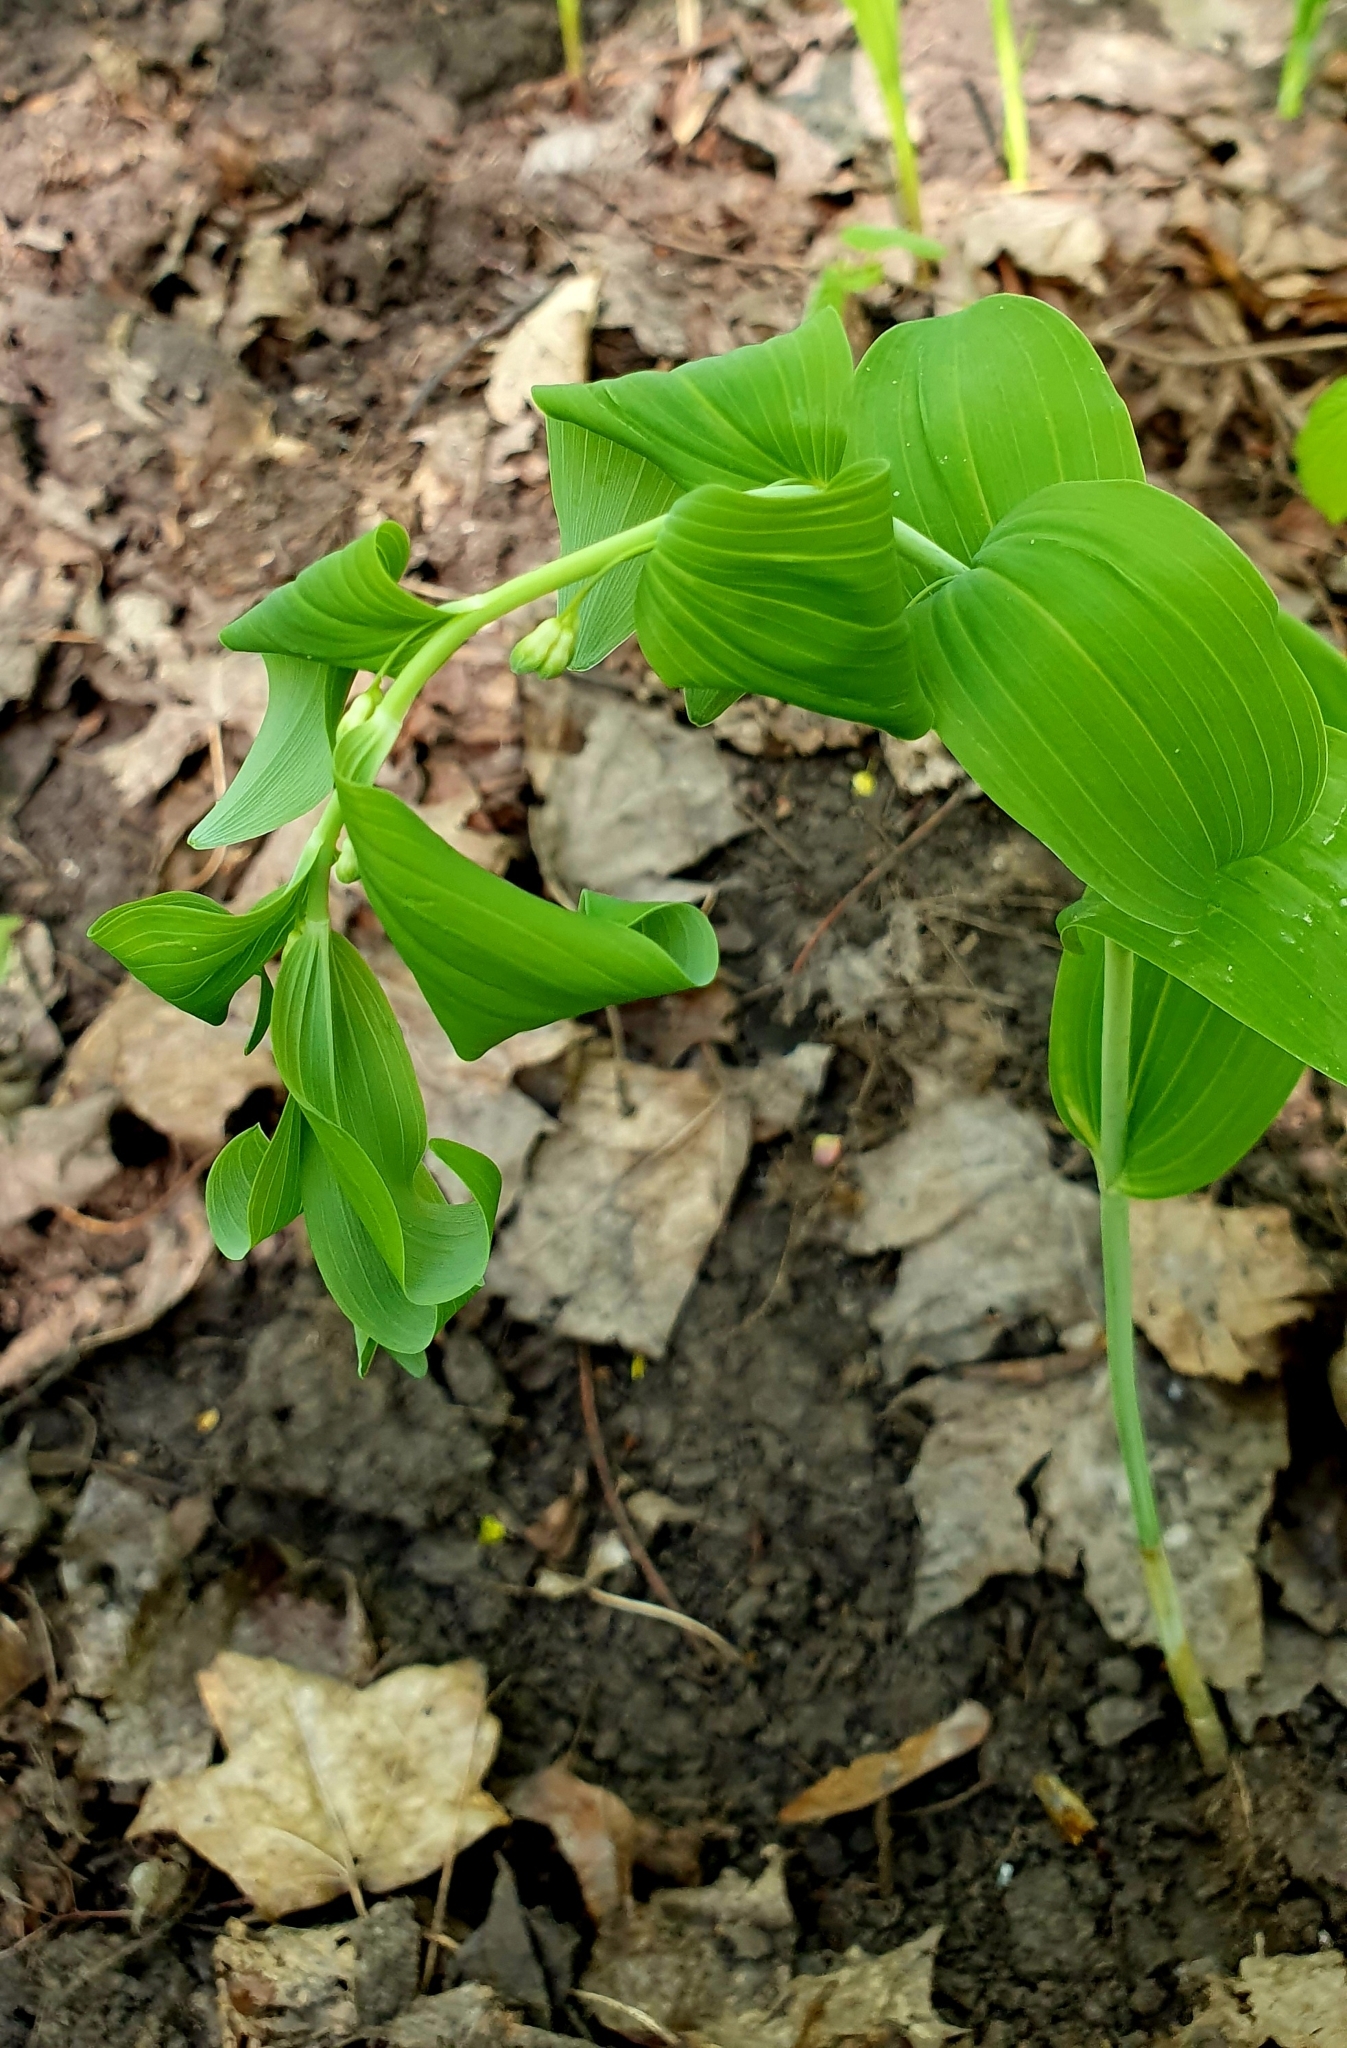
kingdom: Plantae
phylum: Tracheophyta
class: Liliopsida
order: Asparagales
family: Asparagaceae
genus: Polygonatum
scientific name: Polygonatum multiflorum
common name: Solomon's-seal
